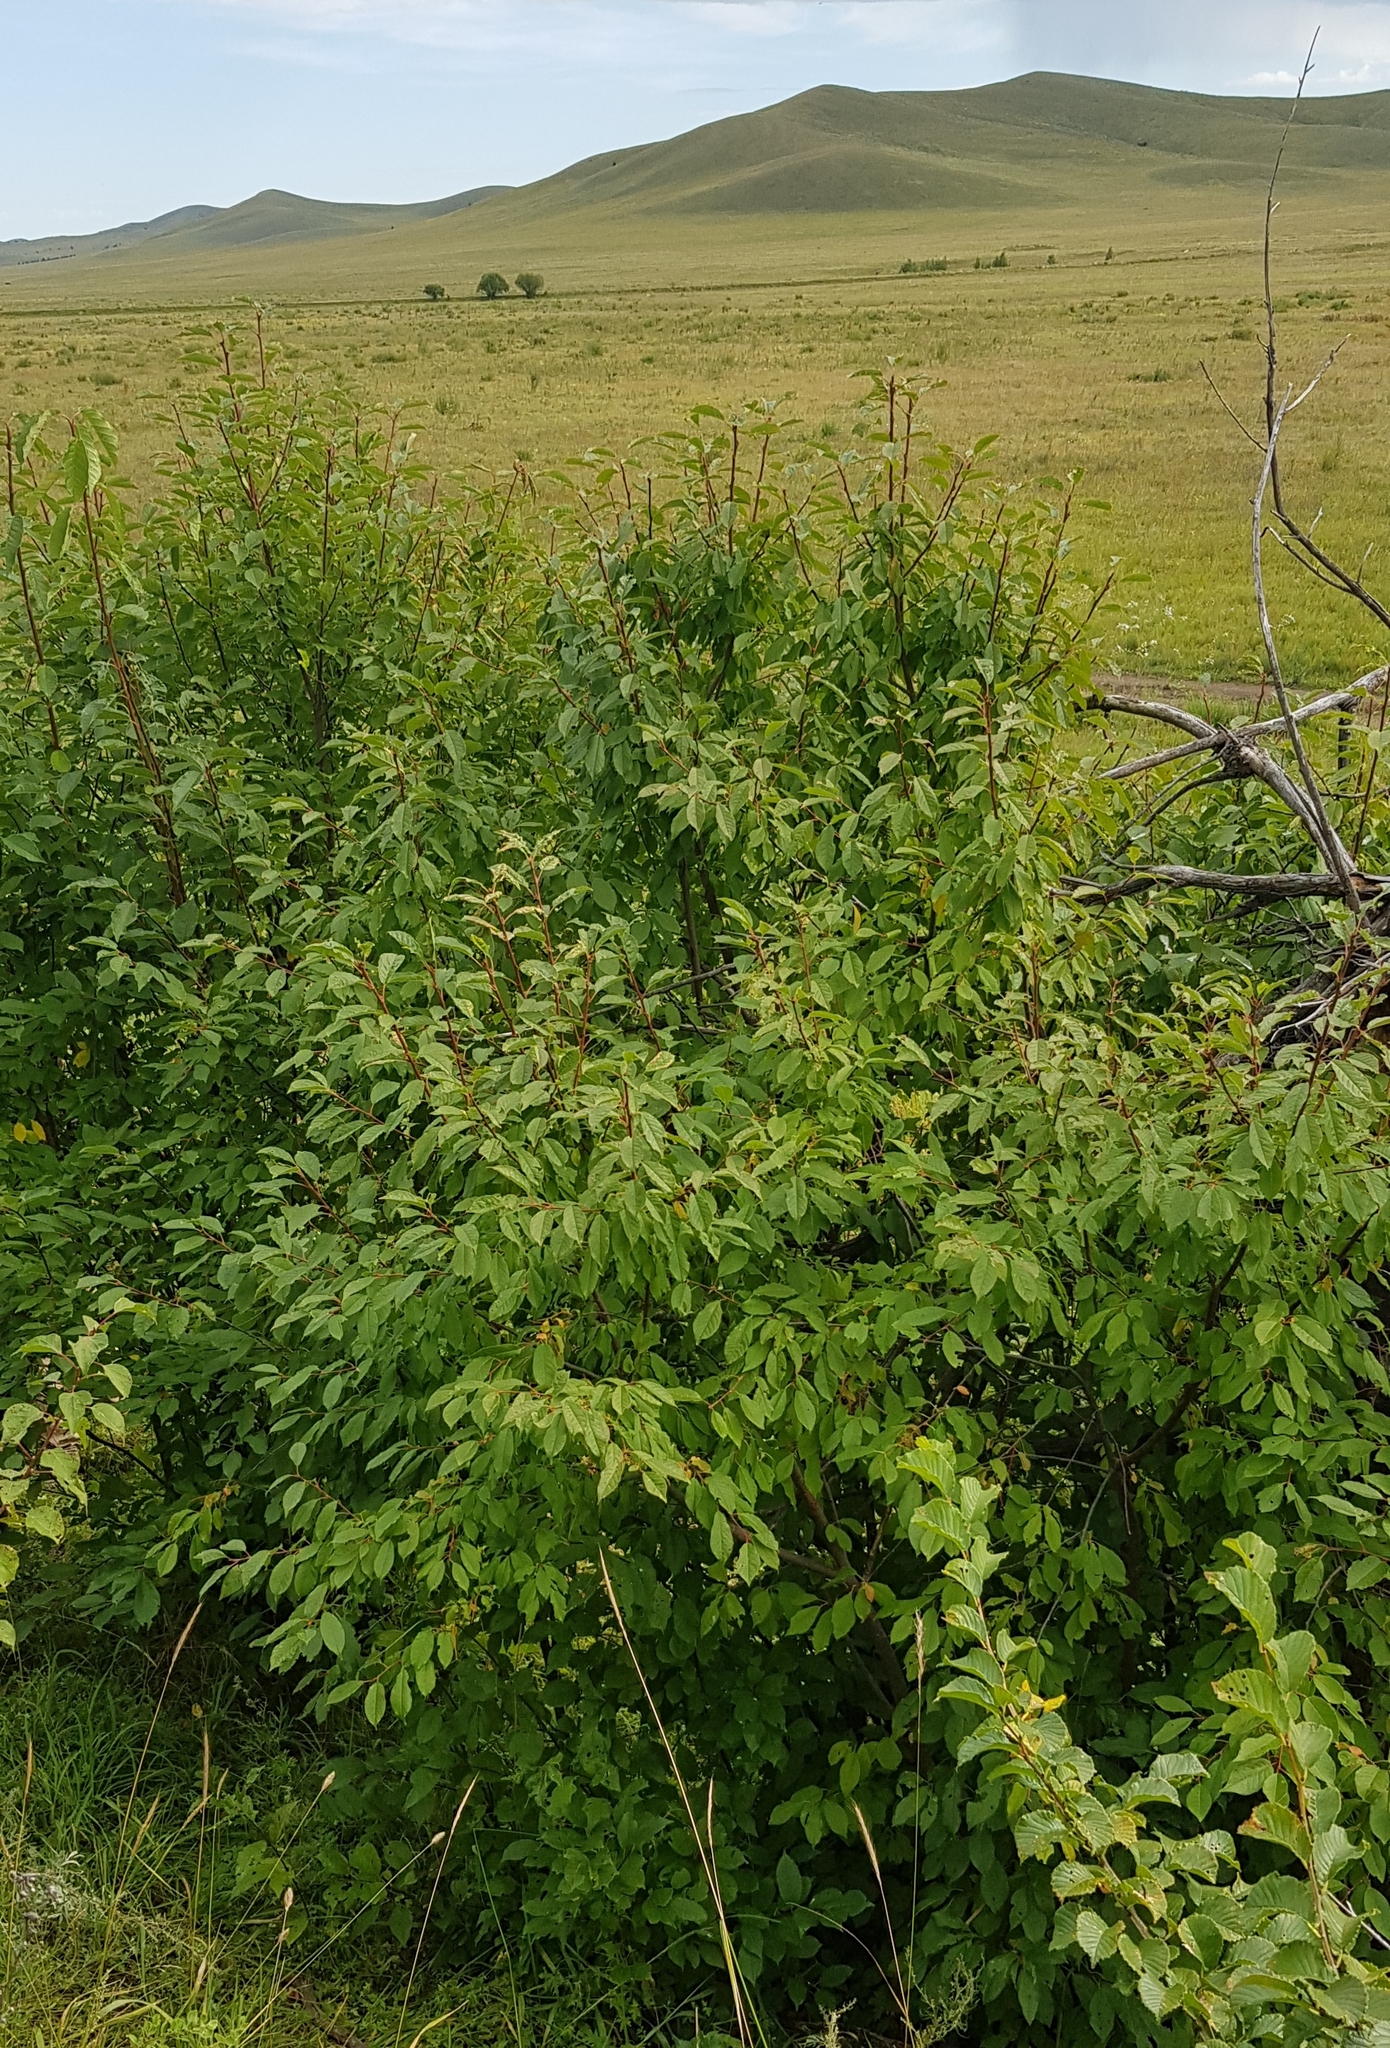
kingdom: Plantae
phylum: Tracheophyta
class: Magnoliopsida
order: Rosales
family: Rosaceae
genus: Prunus
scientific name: Prunus padus
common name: Bird cherry
